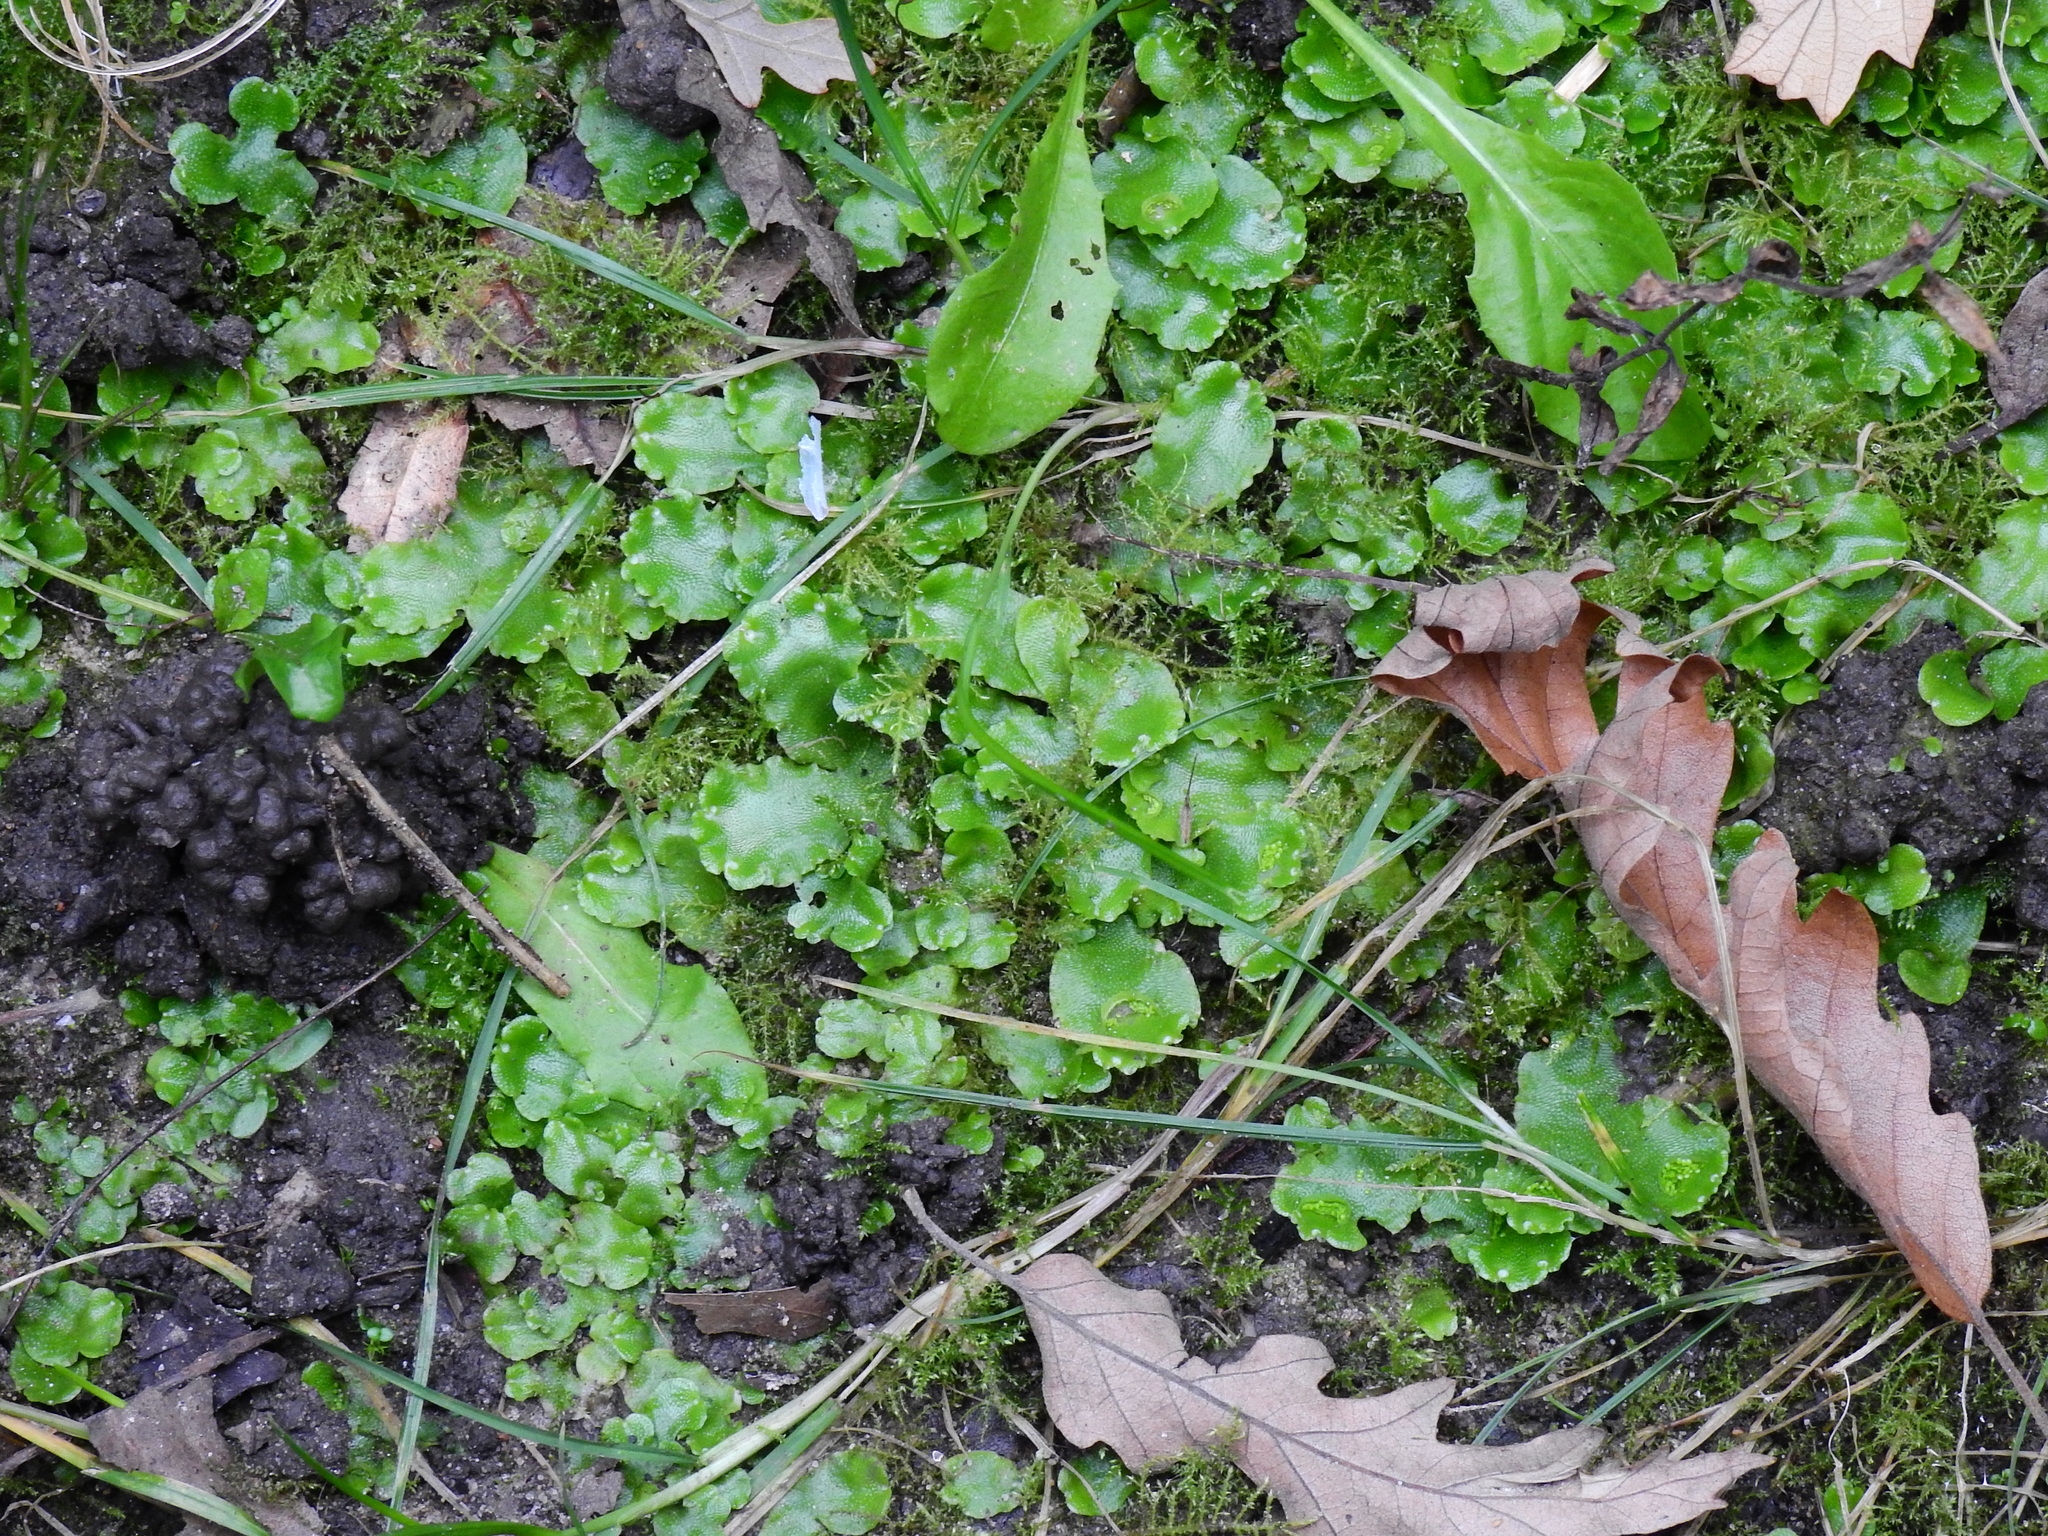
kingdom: Plantae
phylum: Marchantiophyta
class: Marchantiopsida
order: Lunulariales
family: Lunulariaceae
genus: Lunularia
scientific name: Lunularia cruciata
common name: Crescent-cup liverwort
